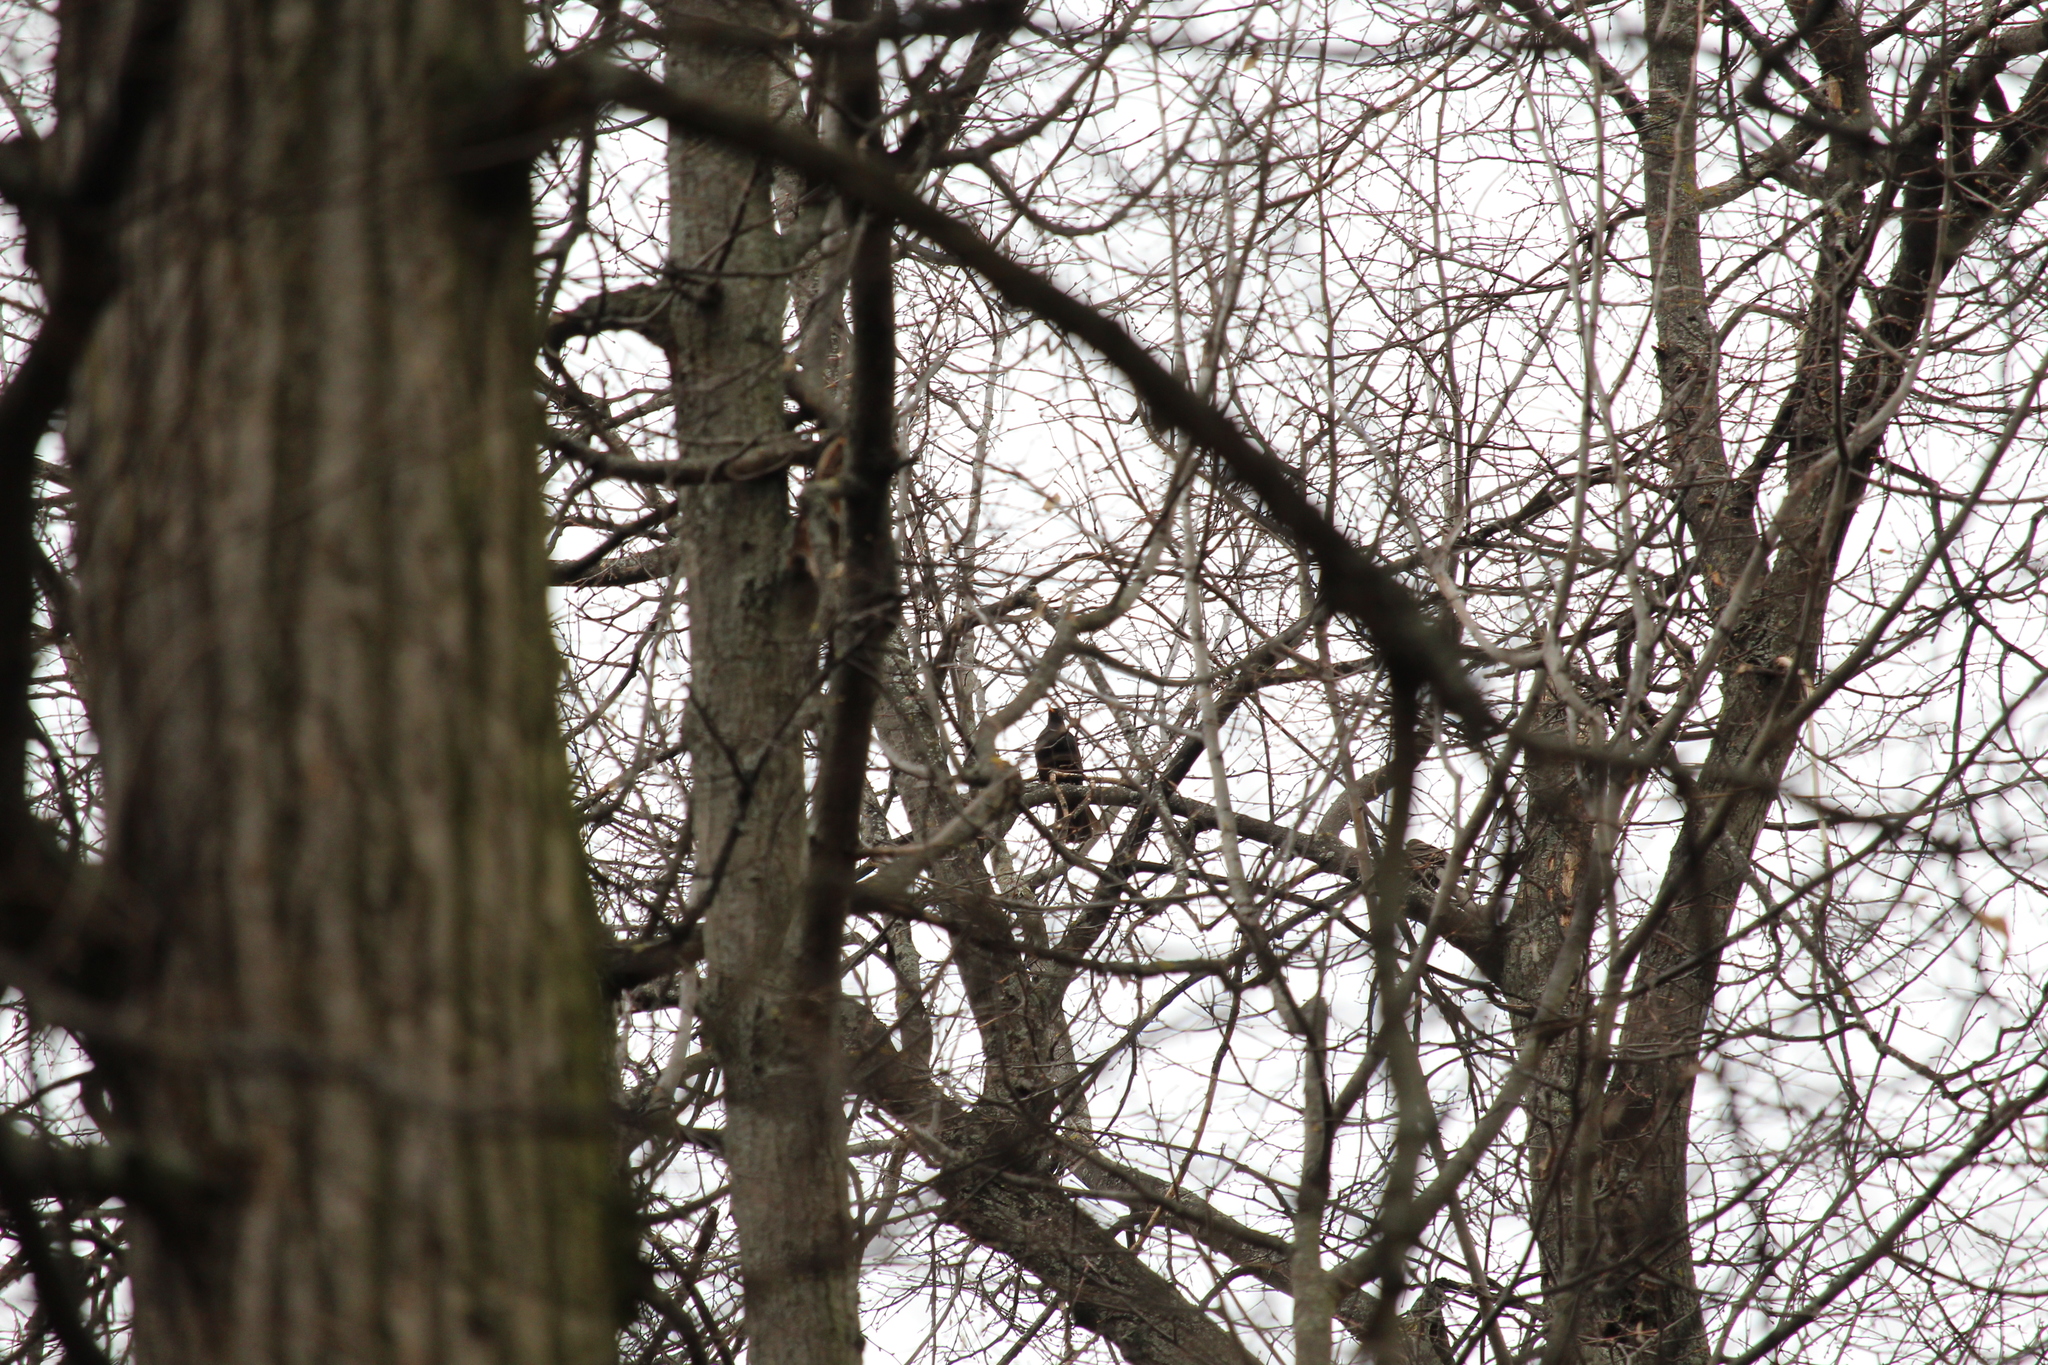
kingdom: Animalia
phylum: Chordata
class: Aves
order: Passeriformes
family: Turdidae
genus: Turdus
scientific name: Turdus merula
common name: Common blackbird
